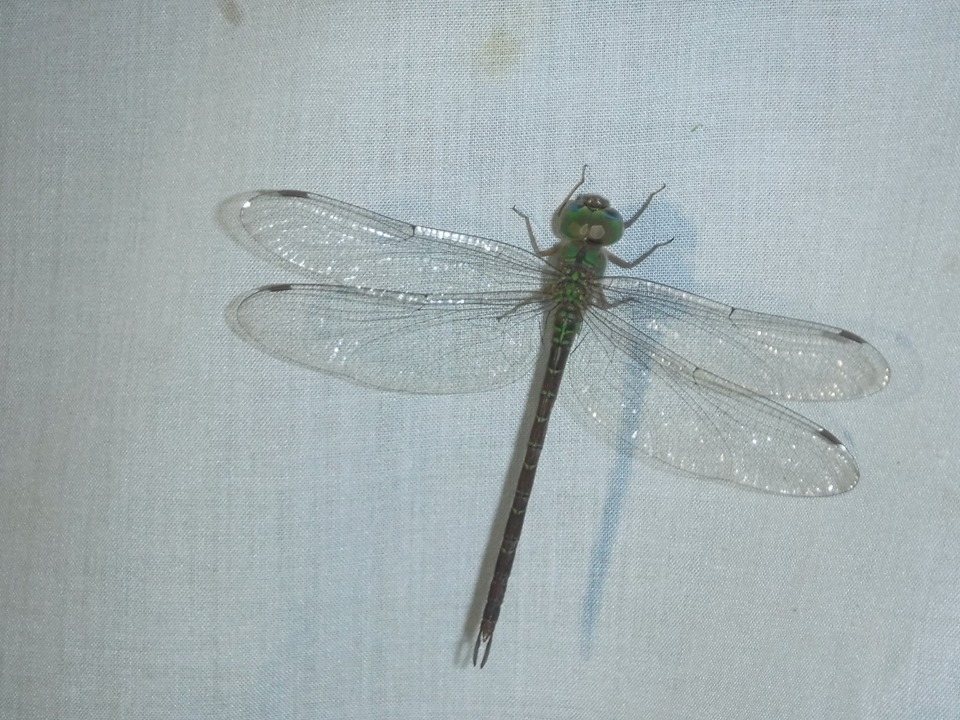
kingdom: Animalia
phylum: Arthropoda
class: Insecta
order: Odonata
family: Aeshnidae
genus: Triacanthagyna
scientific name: Triacanthagyna septima
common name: Pale-green darner
